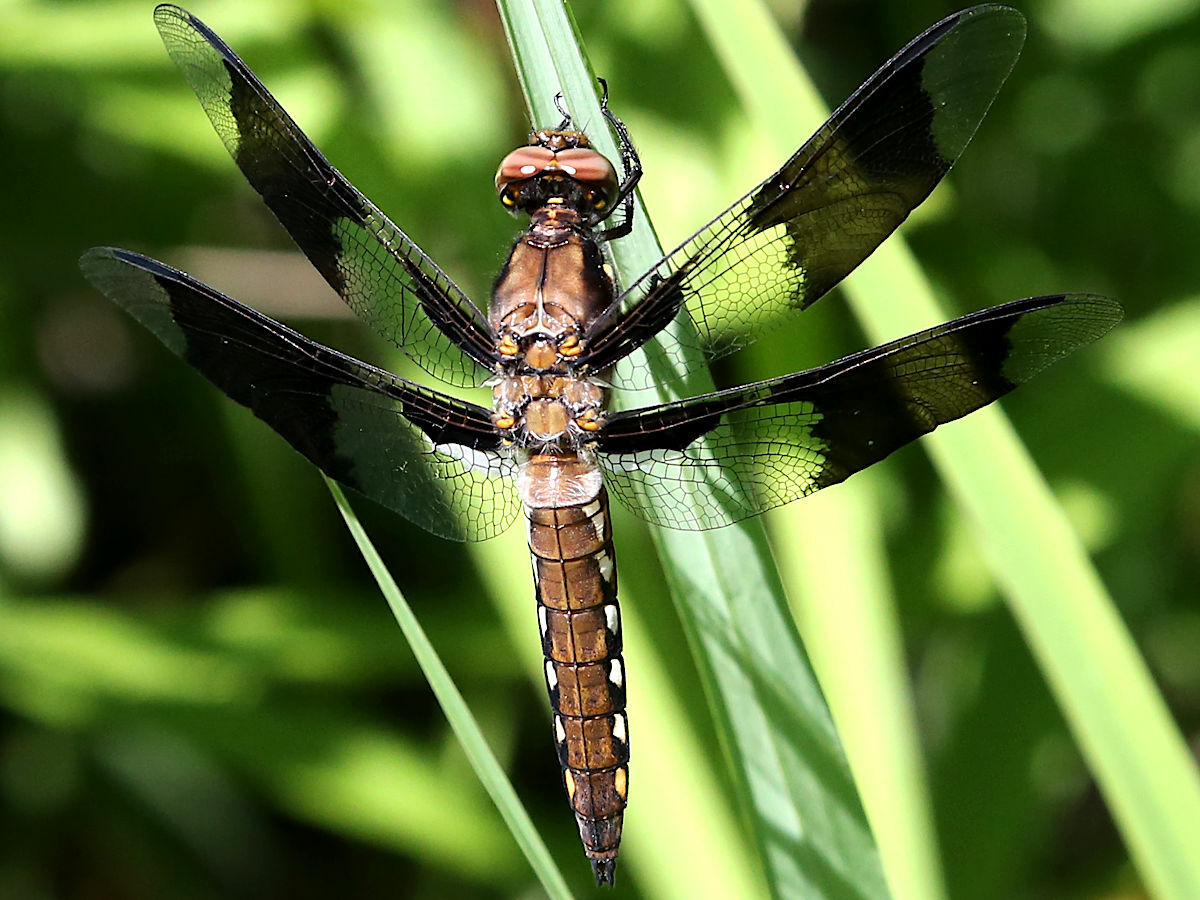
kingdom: Animalia
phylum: Arthropoda
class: Insecta
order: Odonata
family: Libellulidae
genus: Plathemis
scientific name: Plathemis lydia
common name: Common whitetail
